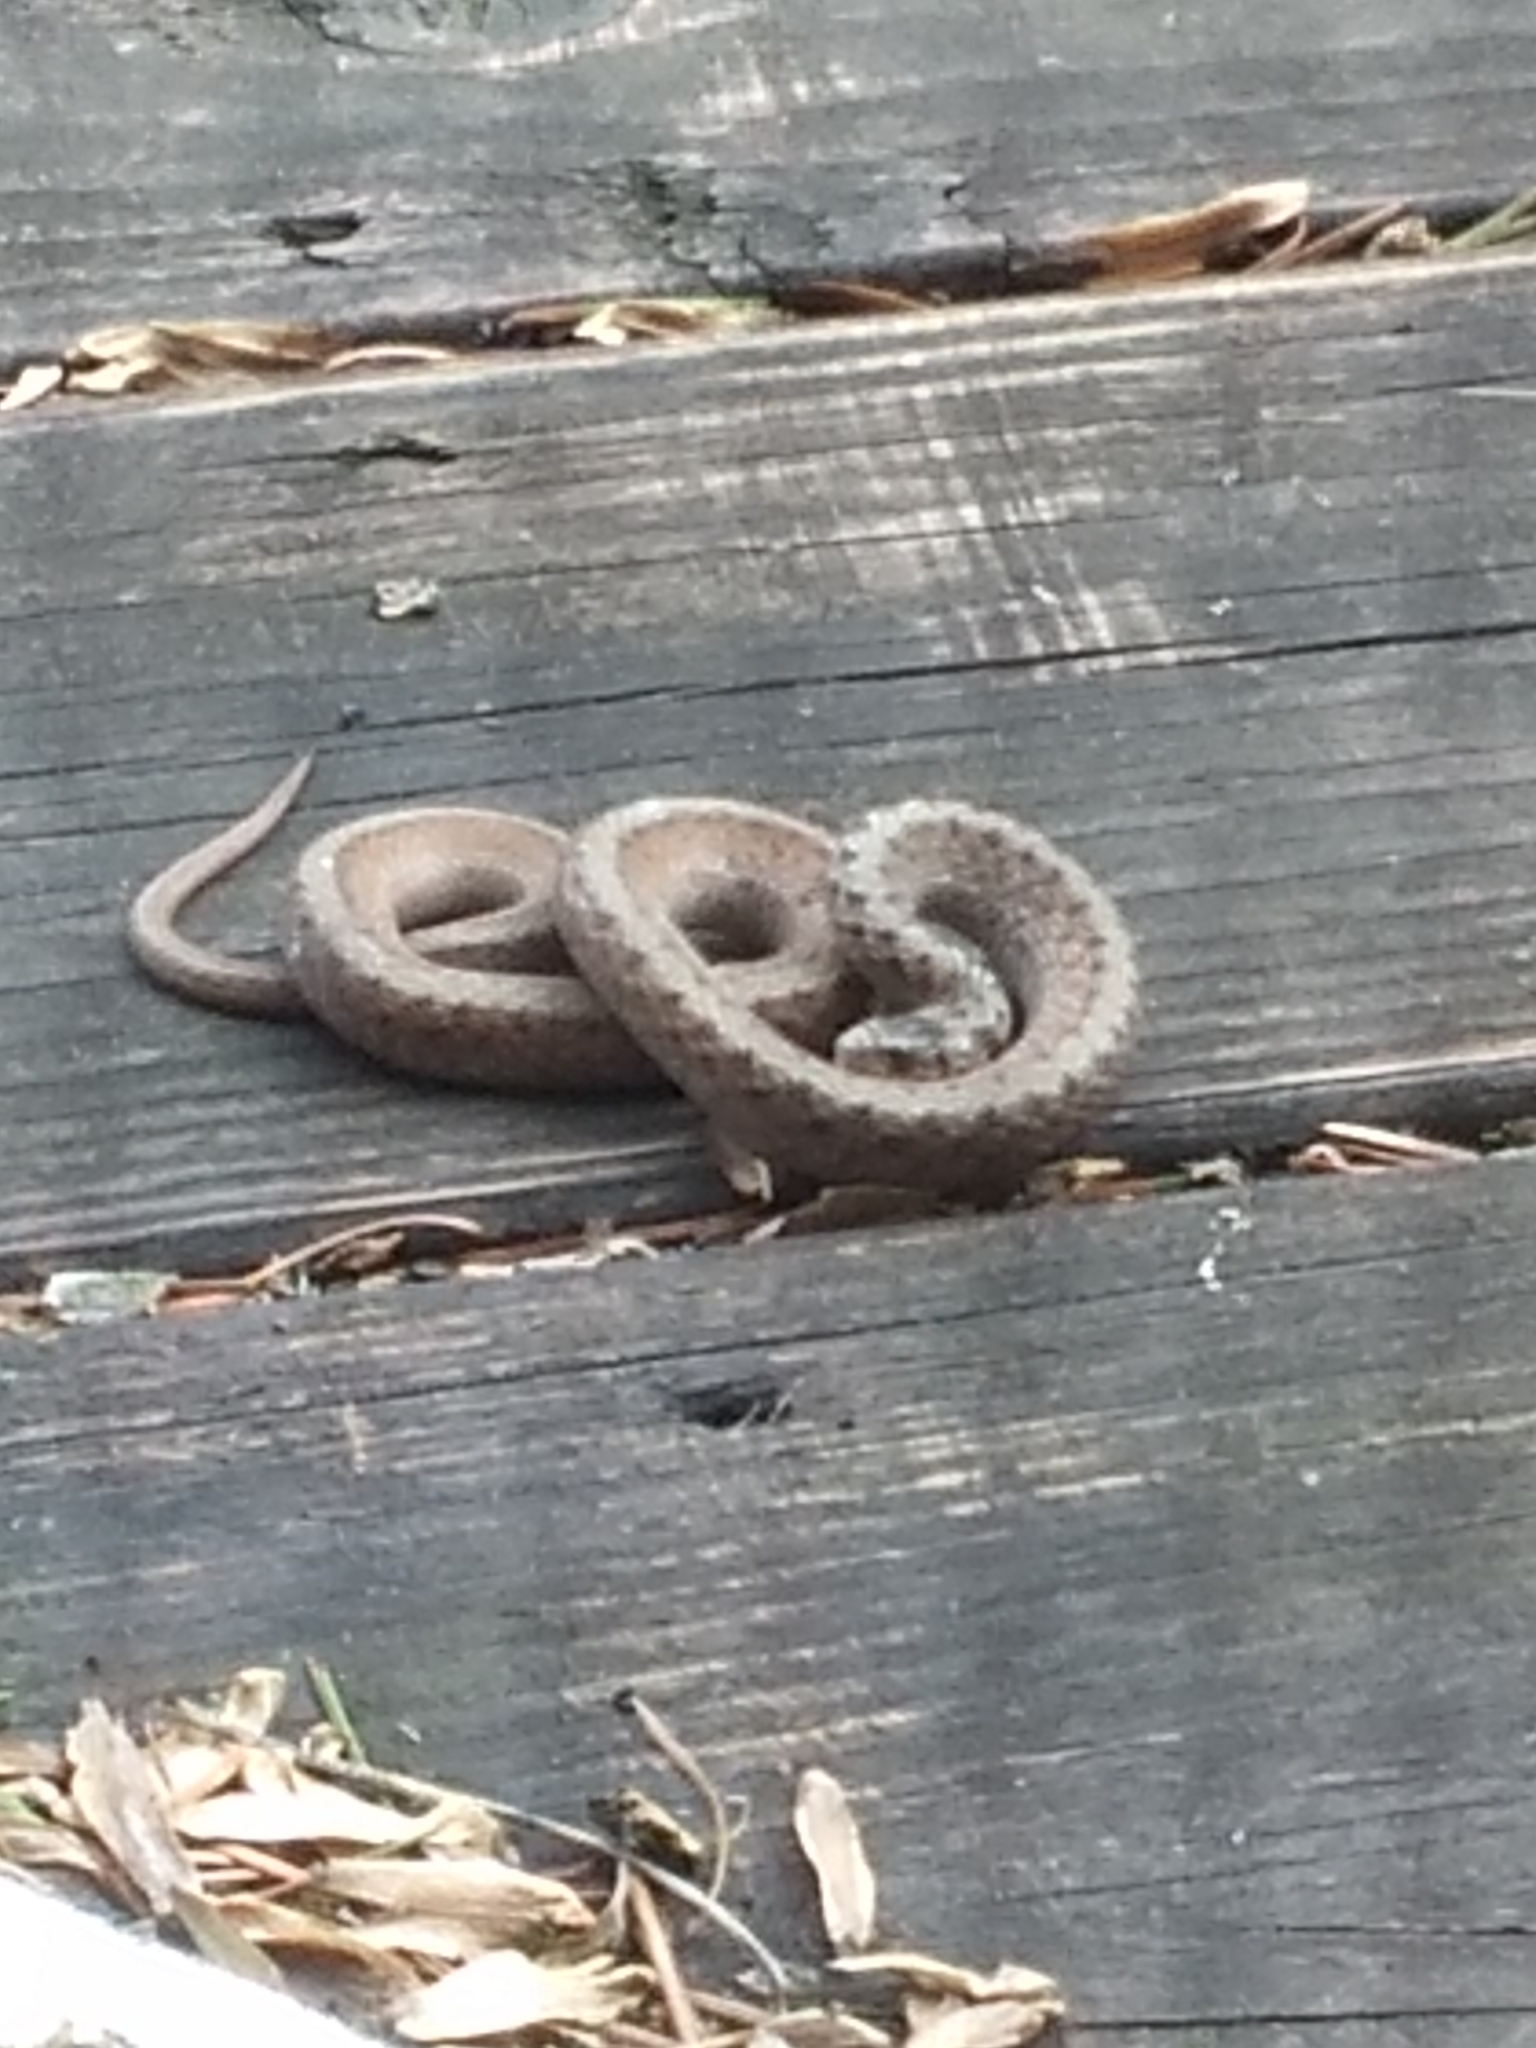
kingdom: Animalia
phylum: Chordata
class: Squamata
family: Colubridae
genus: Storeria
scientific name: Storeria dekayi
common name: (dekay’s) brown snake
